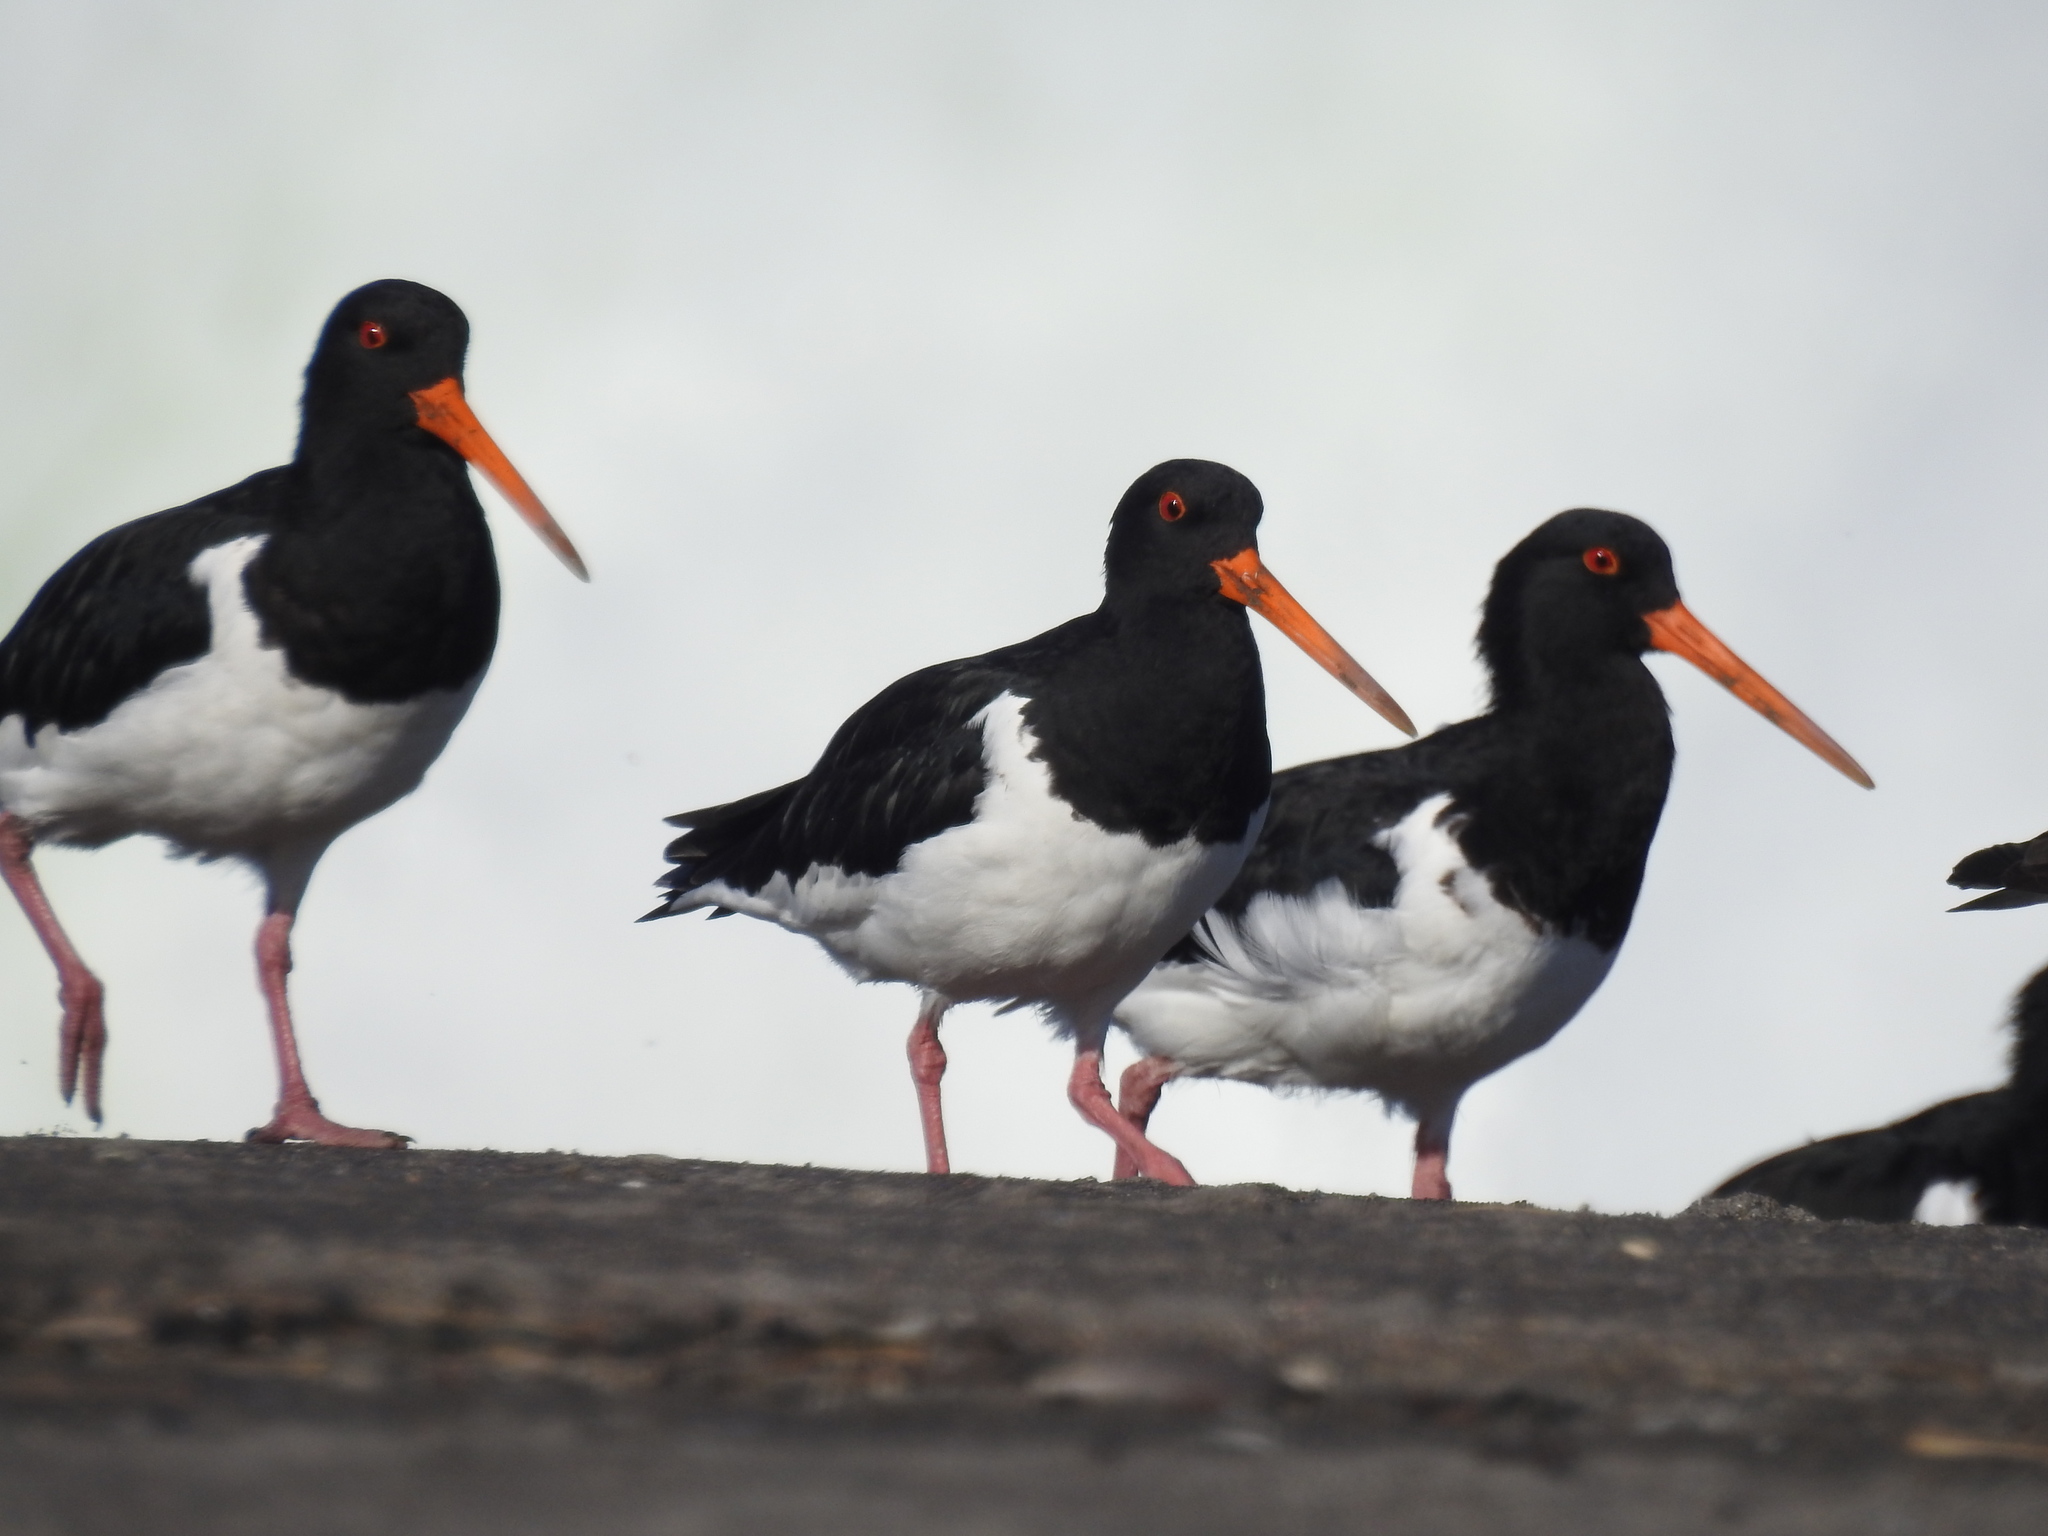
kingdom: Animalia
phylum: Chordata
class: Aves
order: Charadriiformes
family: Haematopodidae
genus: Haematopus
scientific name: Haematopus finschi
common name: South island oystercatcher
